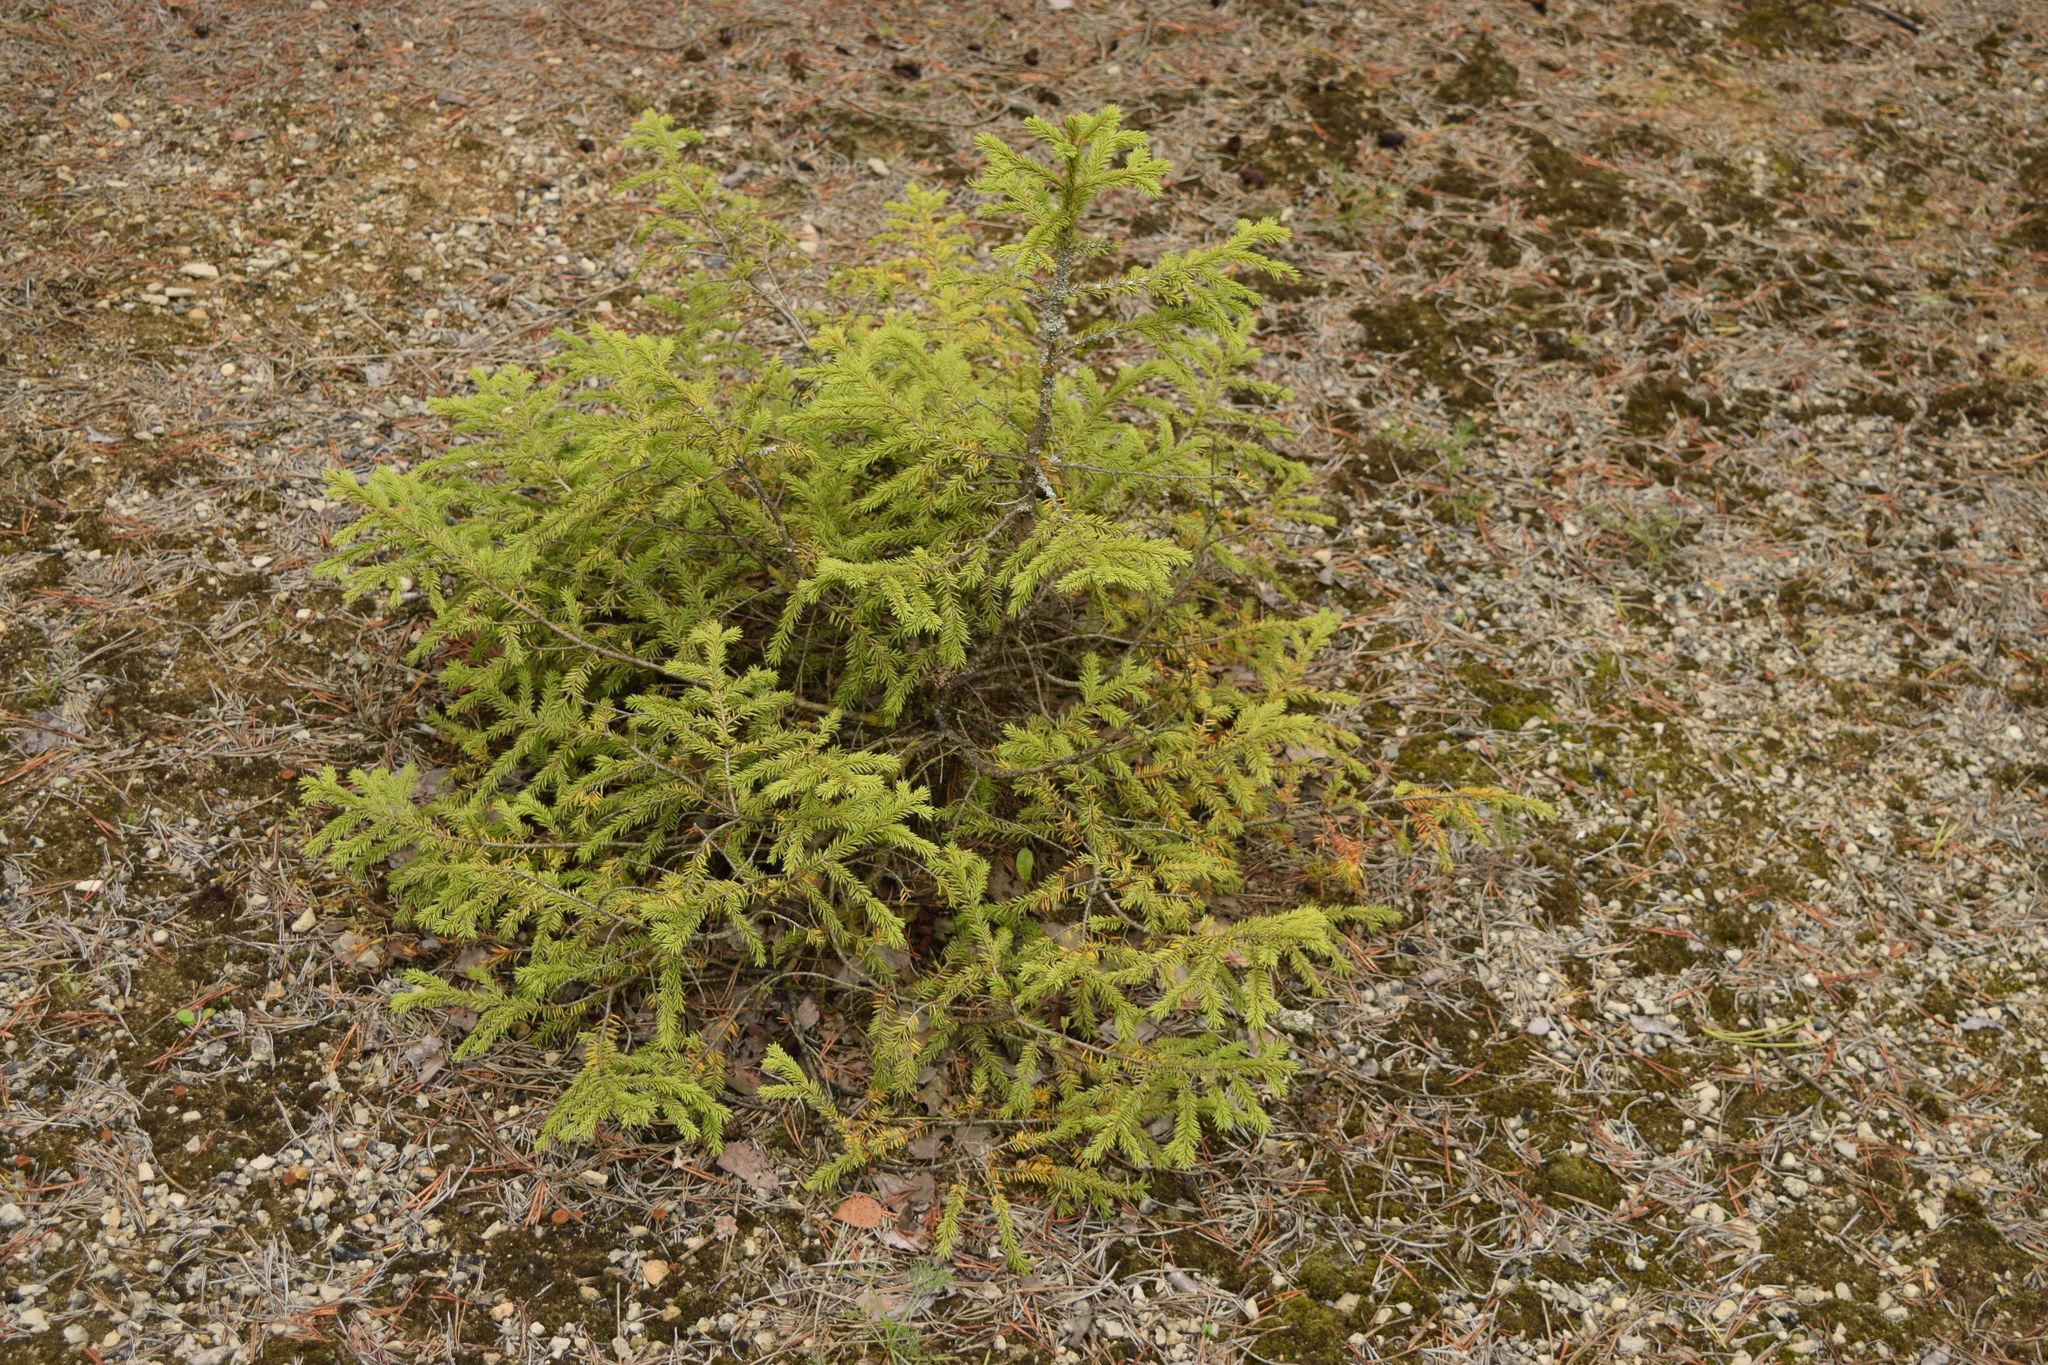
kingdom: Plantae
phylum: Tracheophyta
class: Pinopsida
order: Pinales
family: Pinaceae
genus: Picea
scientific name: Picea abies
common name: Norway spruce
